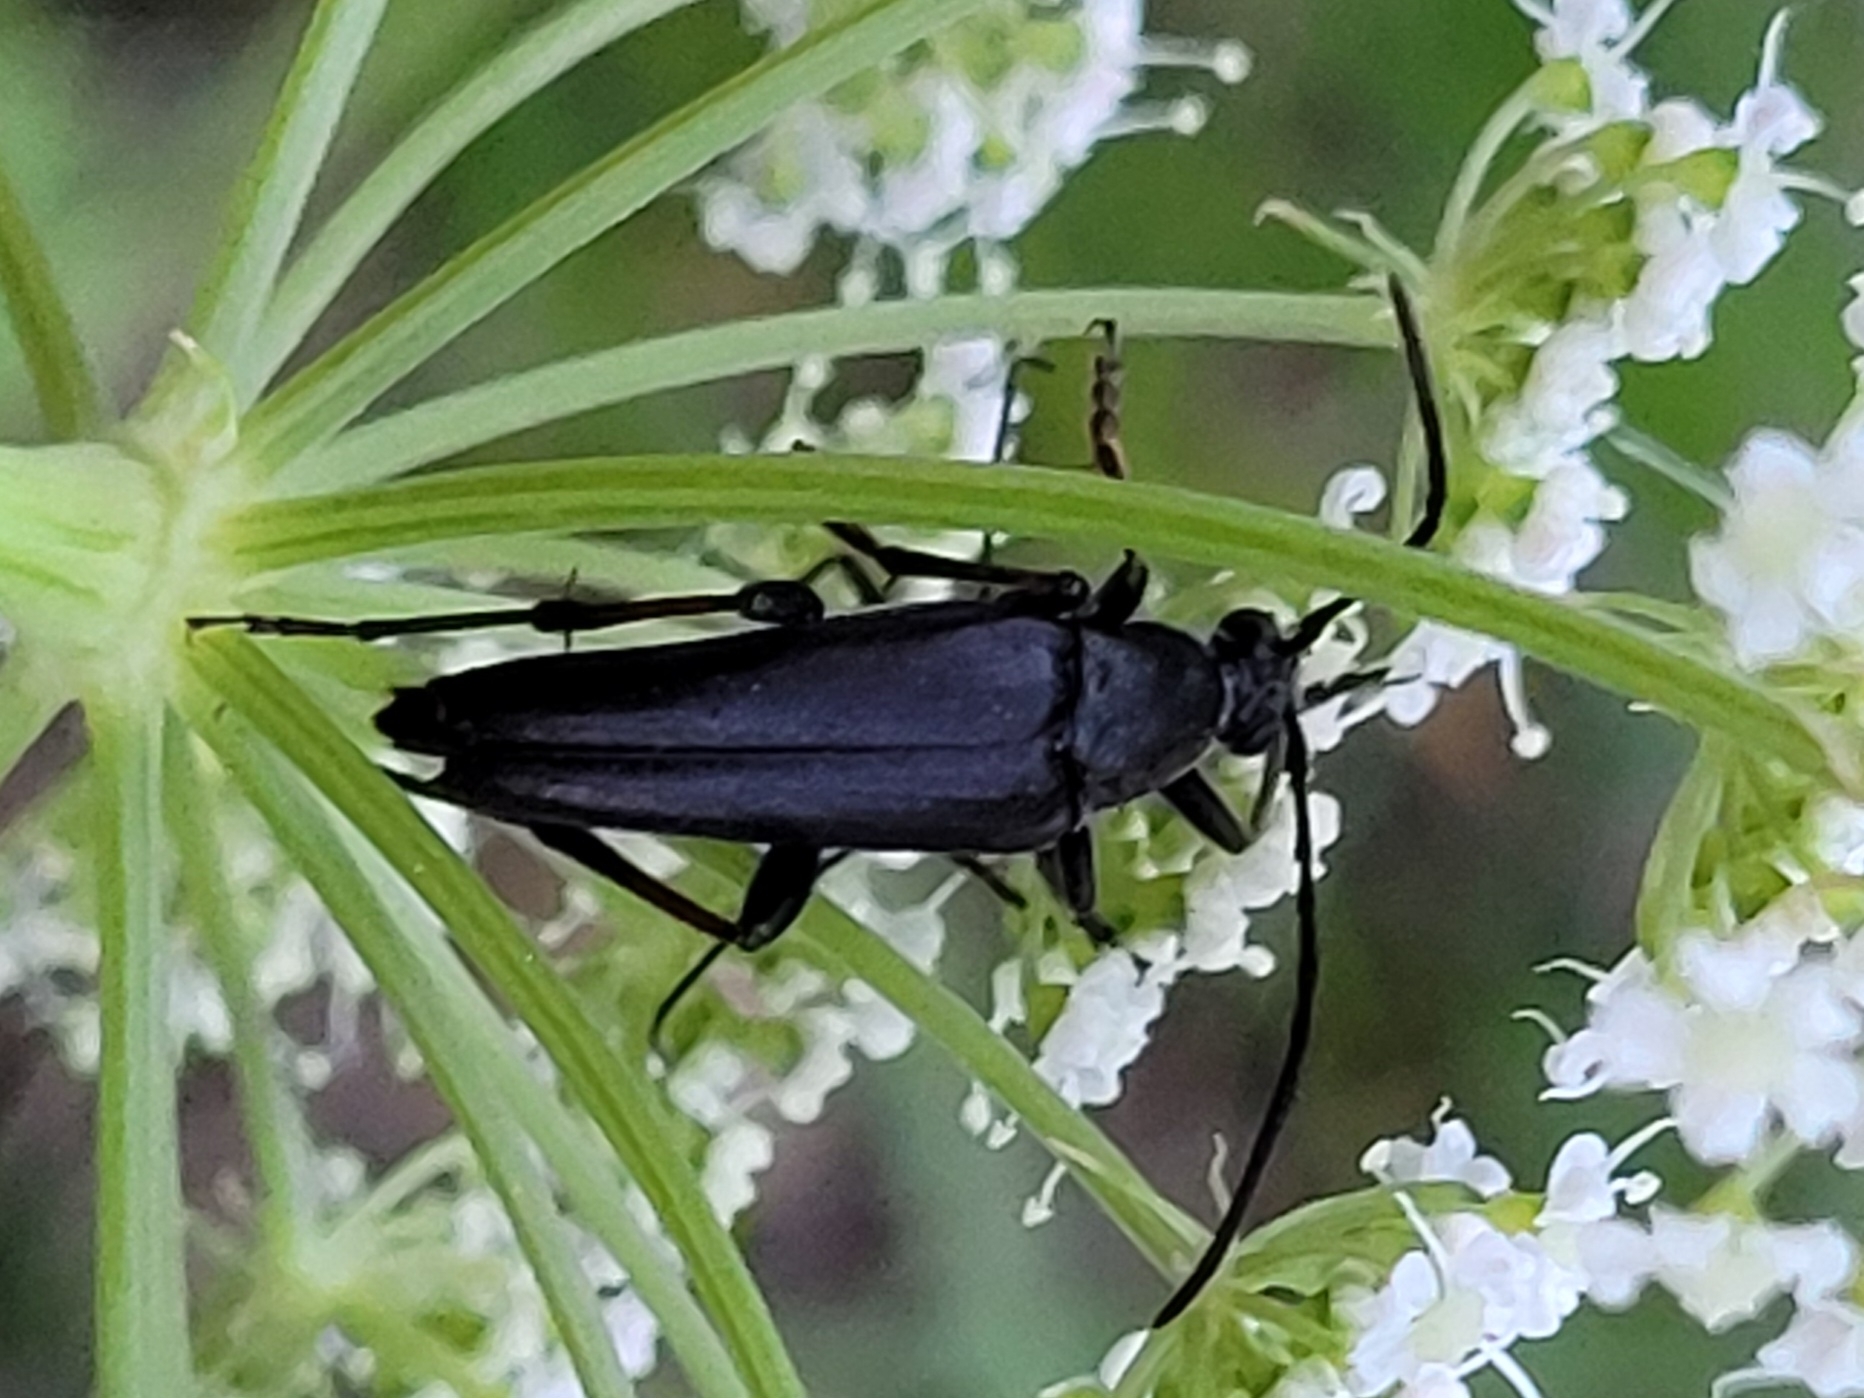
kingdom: Animalia
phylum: Arthropoda
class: Insecta
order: Coleoptera
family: Cerambycidae
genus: Etorofus
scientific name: Etorofus pubescens
